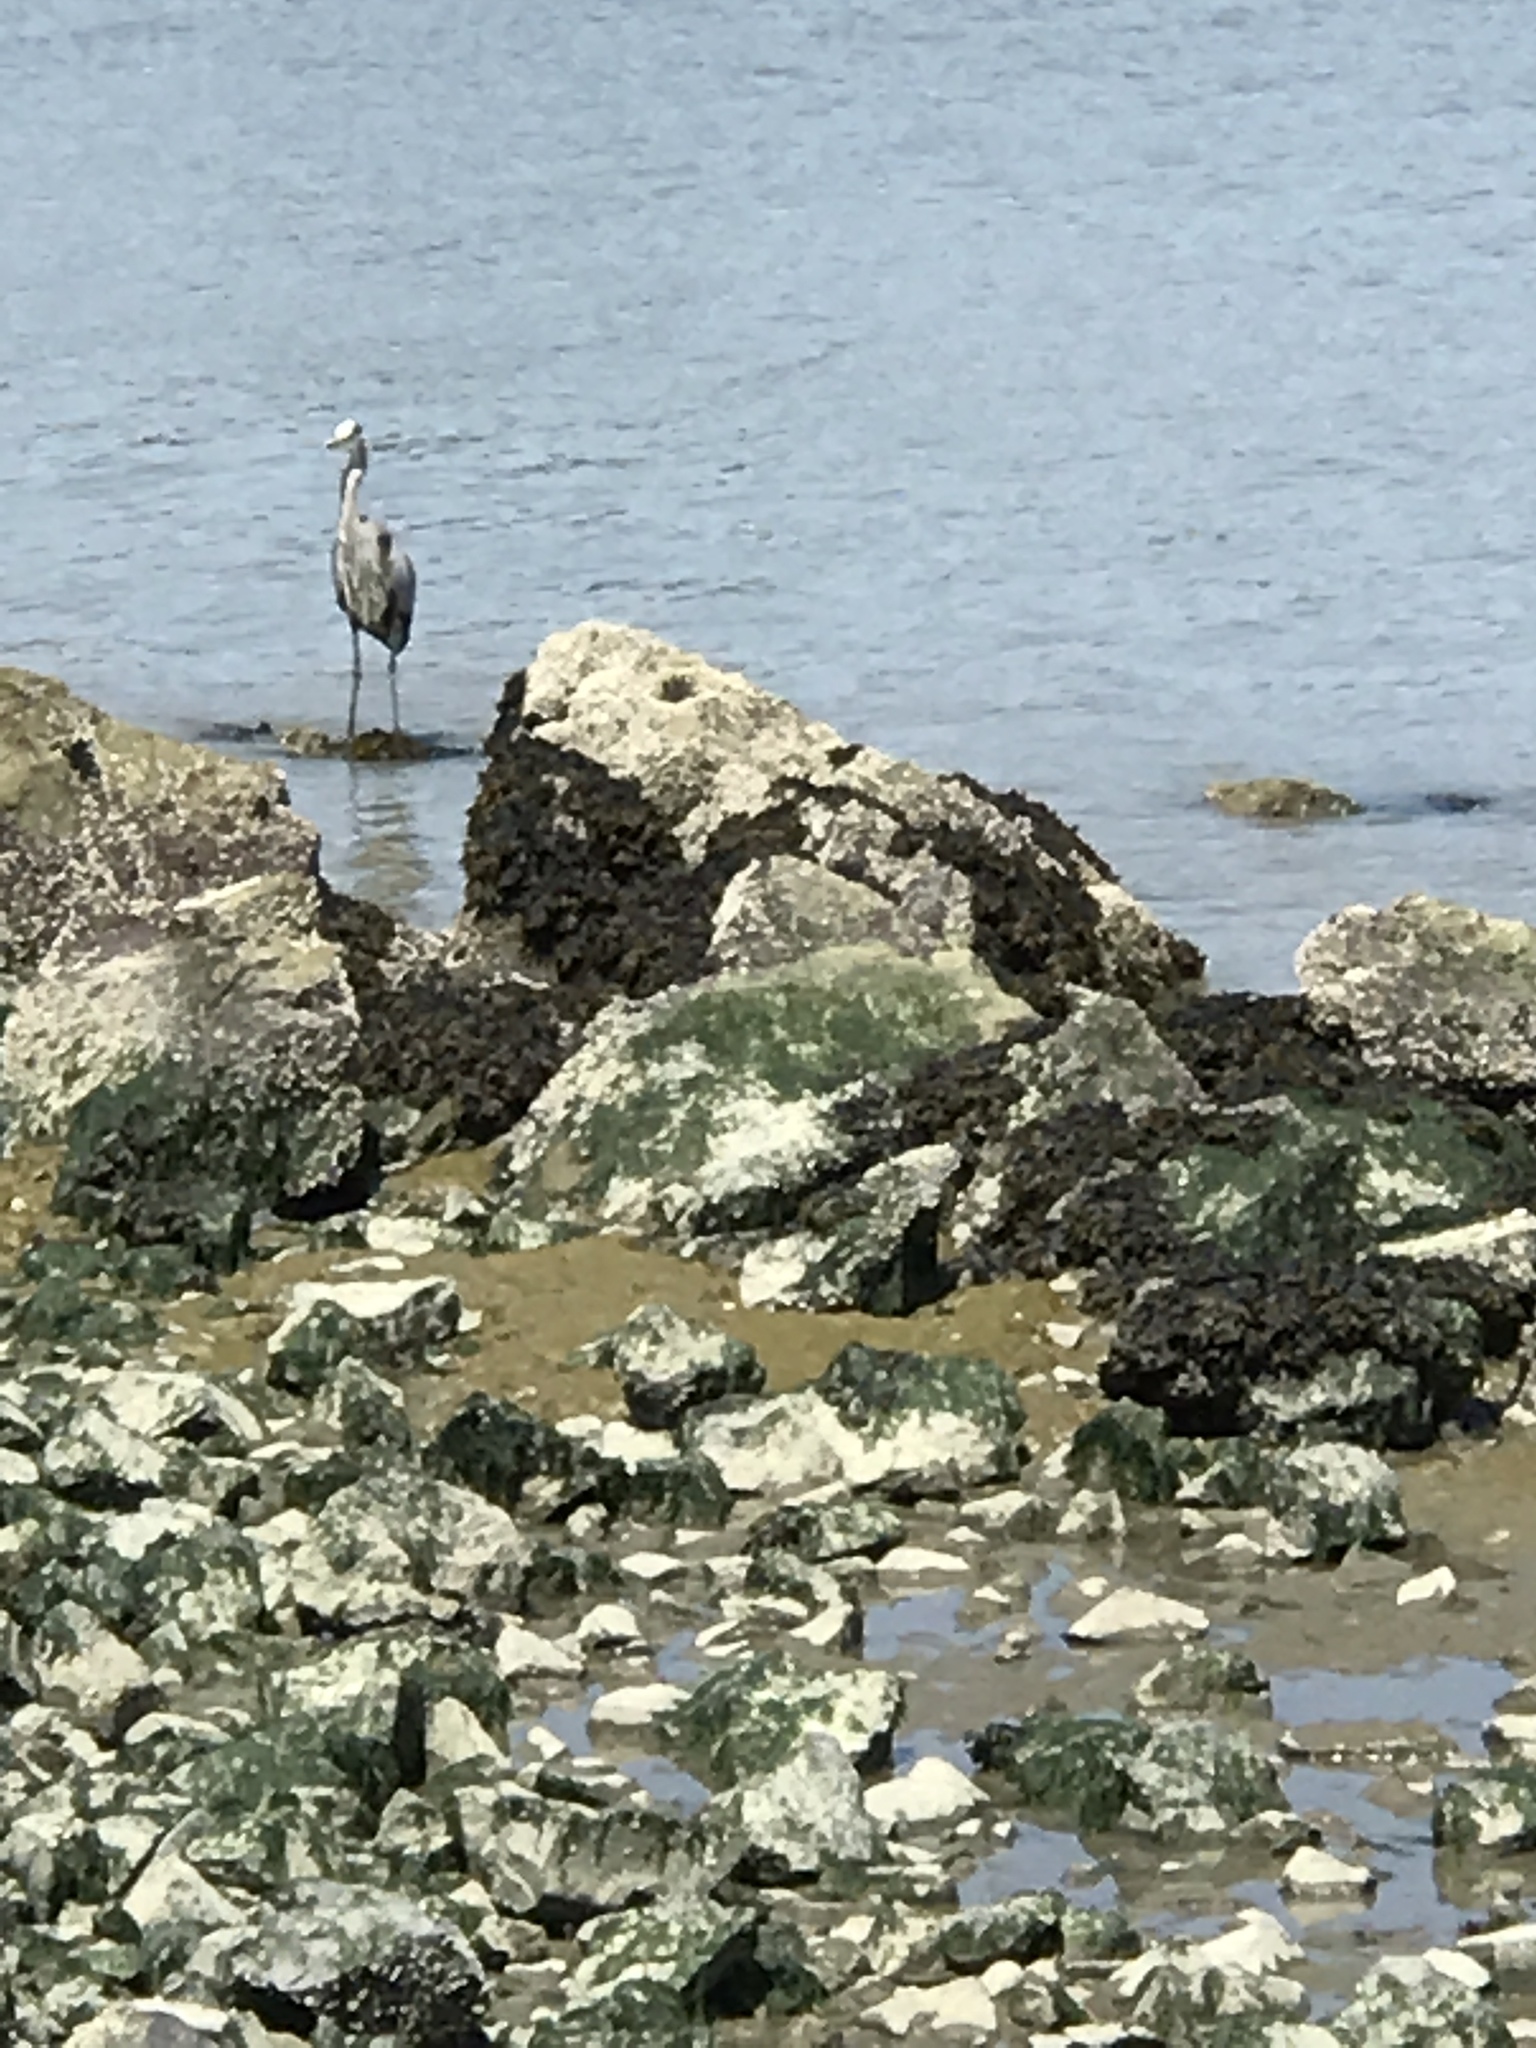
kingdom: Animalia
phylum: Chordata
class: Aves
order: Pelecaniformes
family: Ardeidae
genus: Ardea
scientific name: Ardea herodias
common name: Great blue heron
